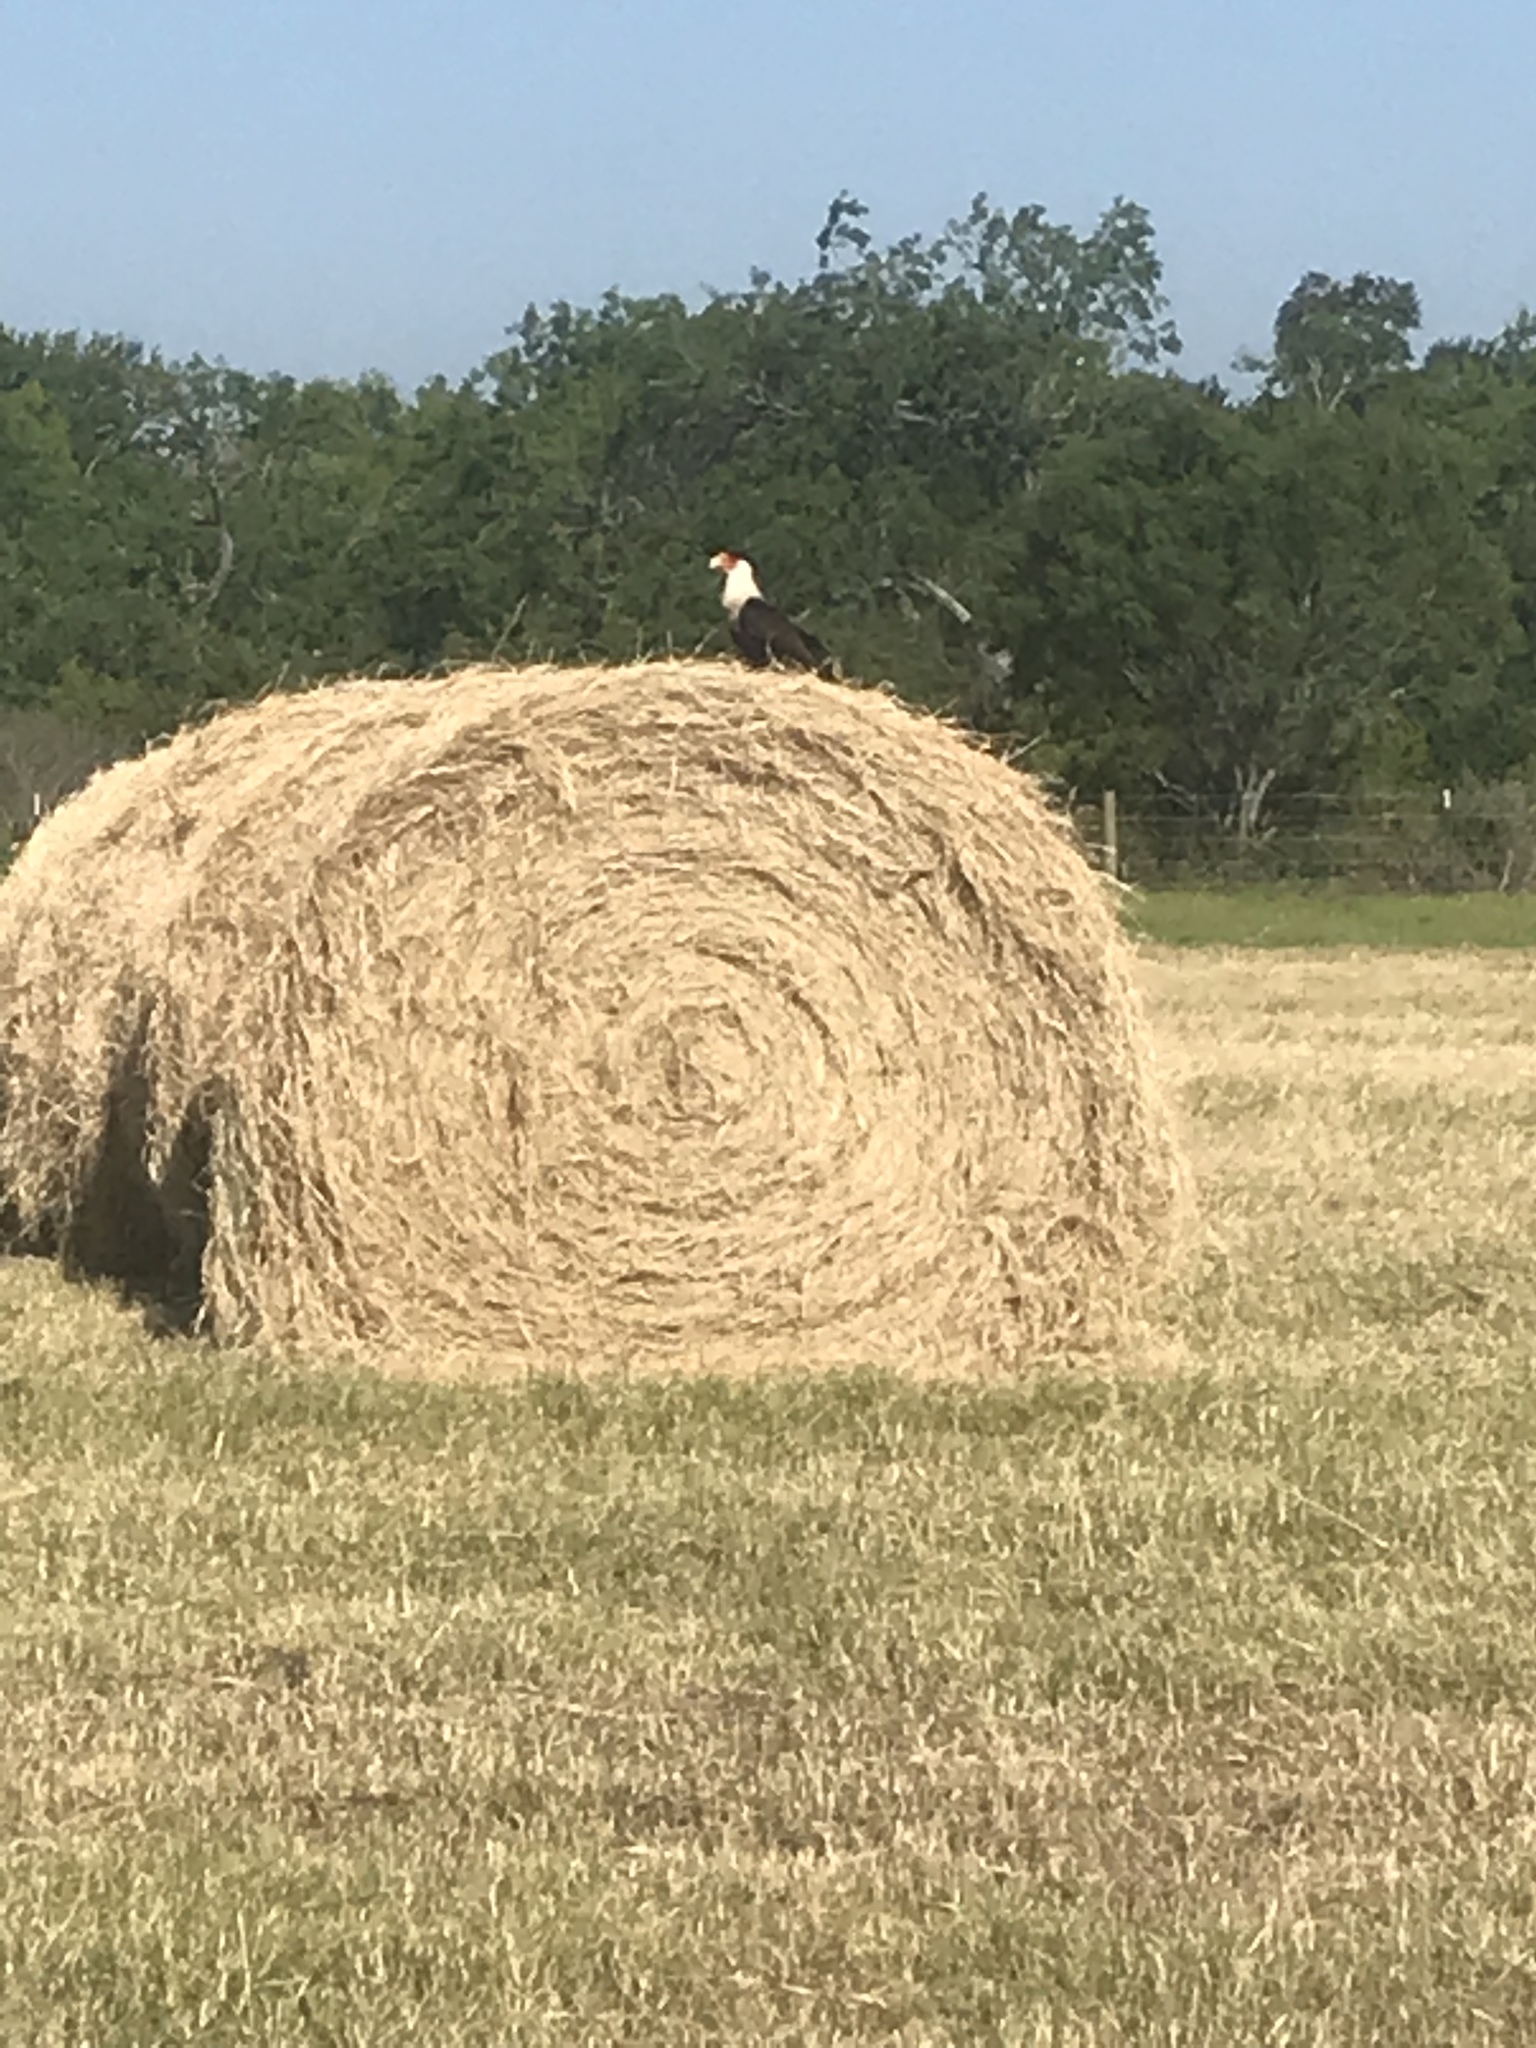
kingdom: Animalia
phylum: Chordata
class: Aves
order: Falconiformes
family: Falconidae
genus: Caracara
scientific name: Caracara plancus
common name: Southern caracara
